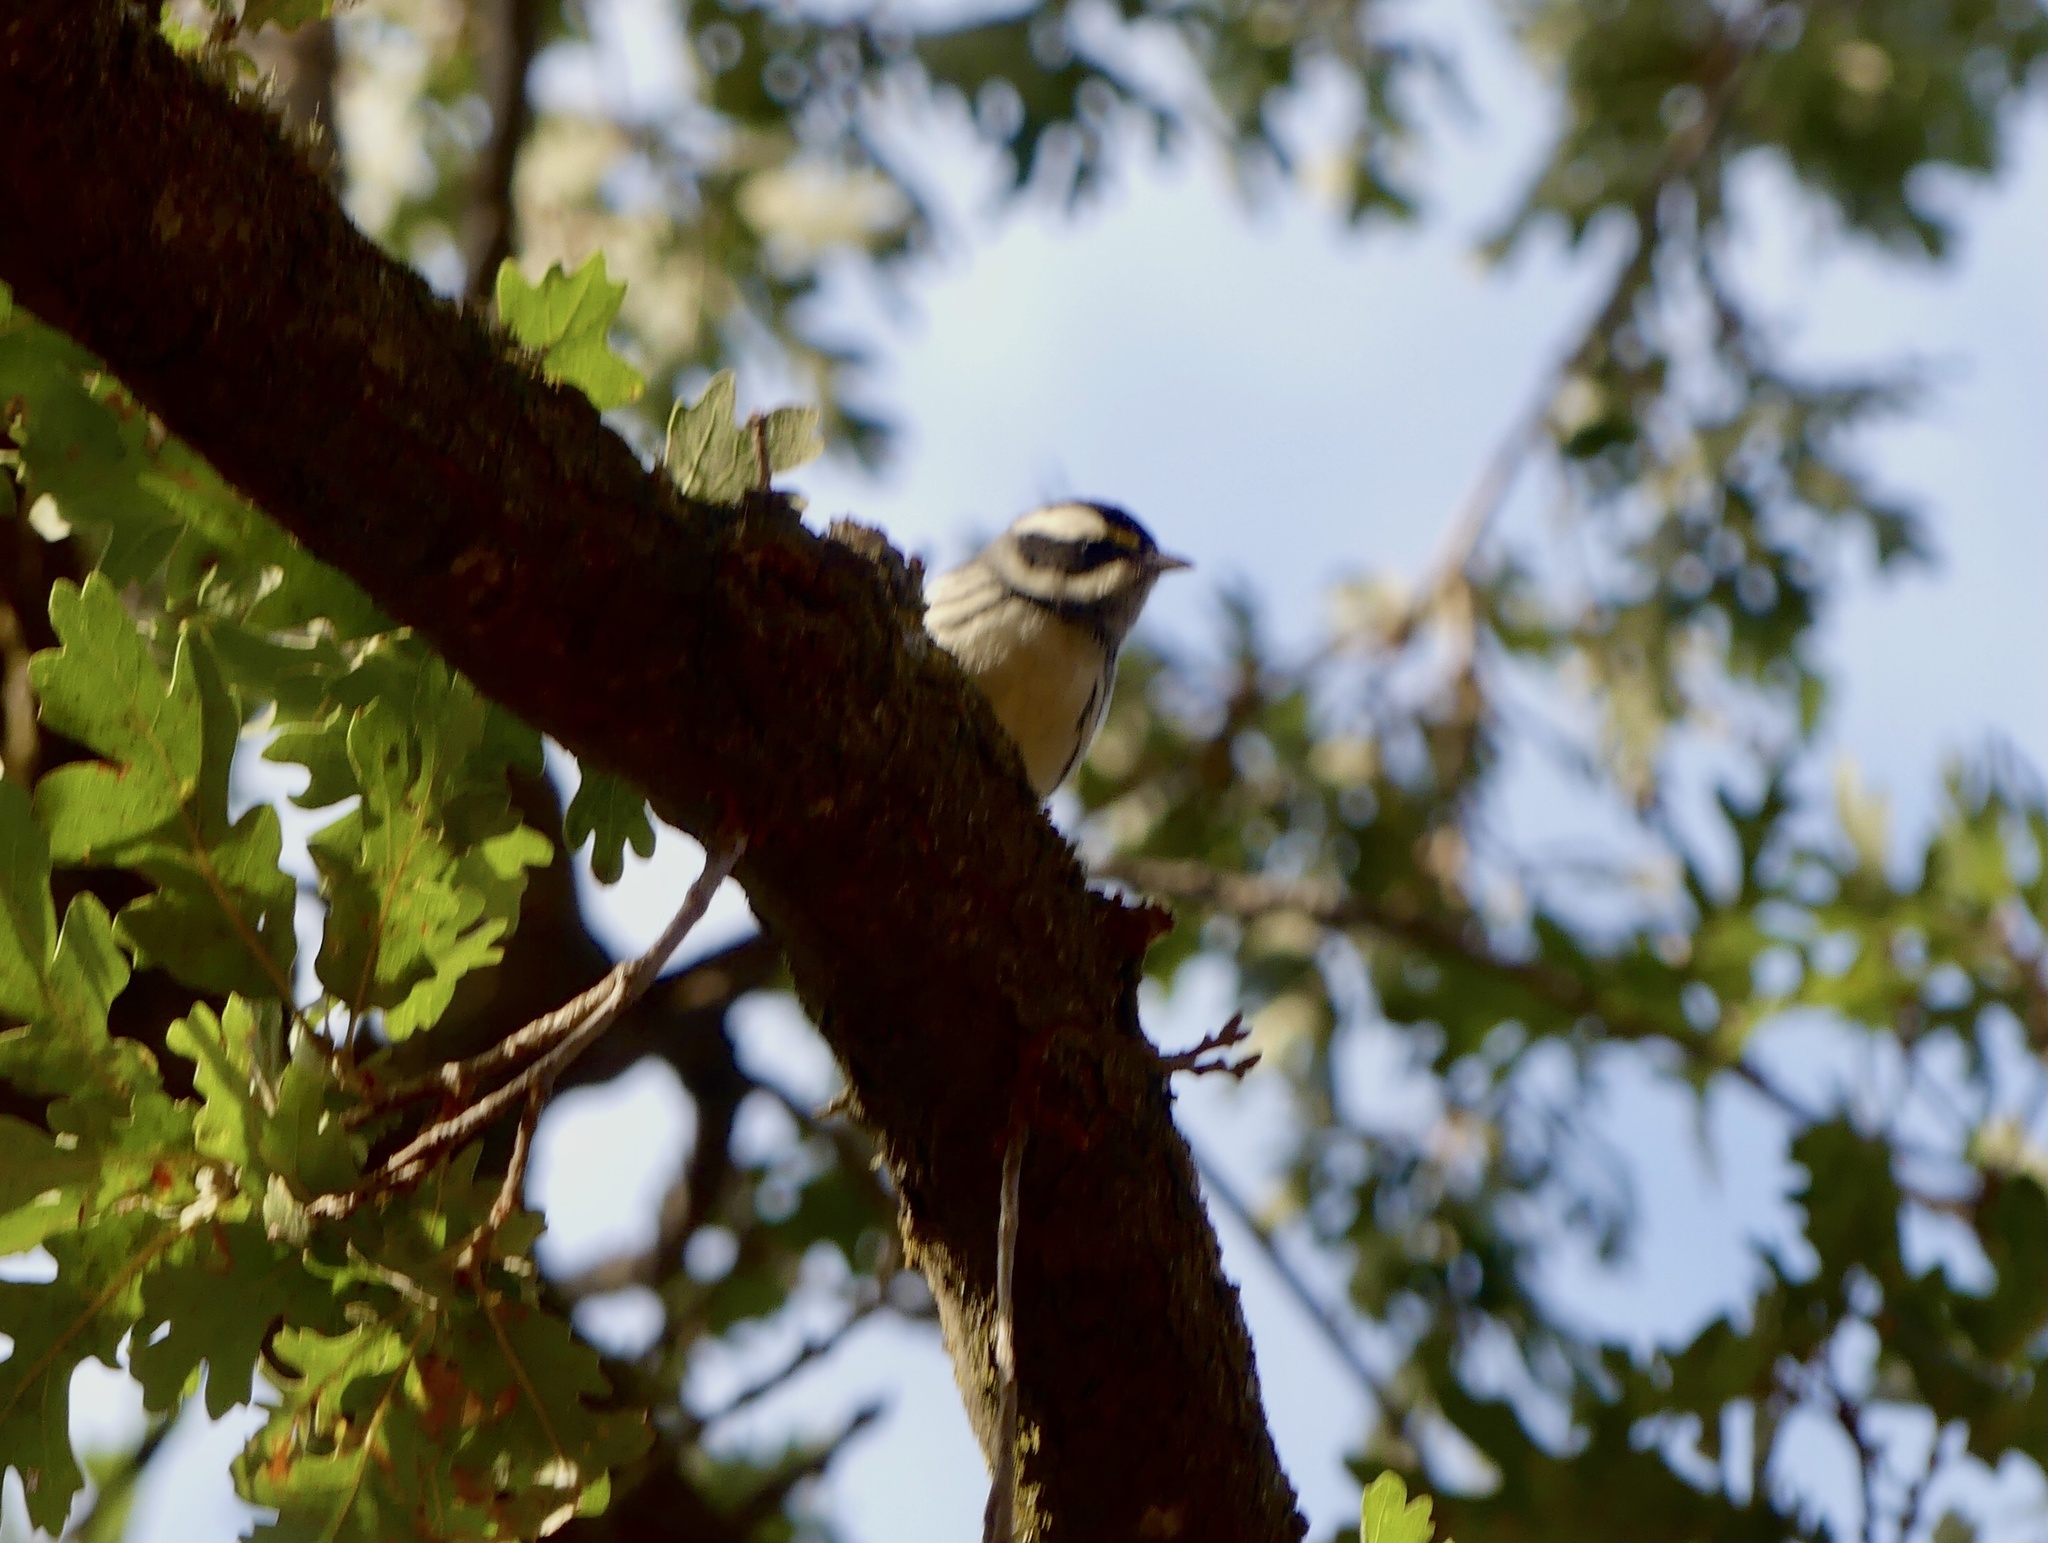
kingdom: Animalia
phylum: Chordata
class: Aves
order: Passeriformes
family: Parulidae
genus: Setophaga
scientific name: Setophaga nigrescens
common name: Black-throated gray warbler
